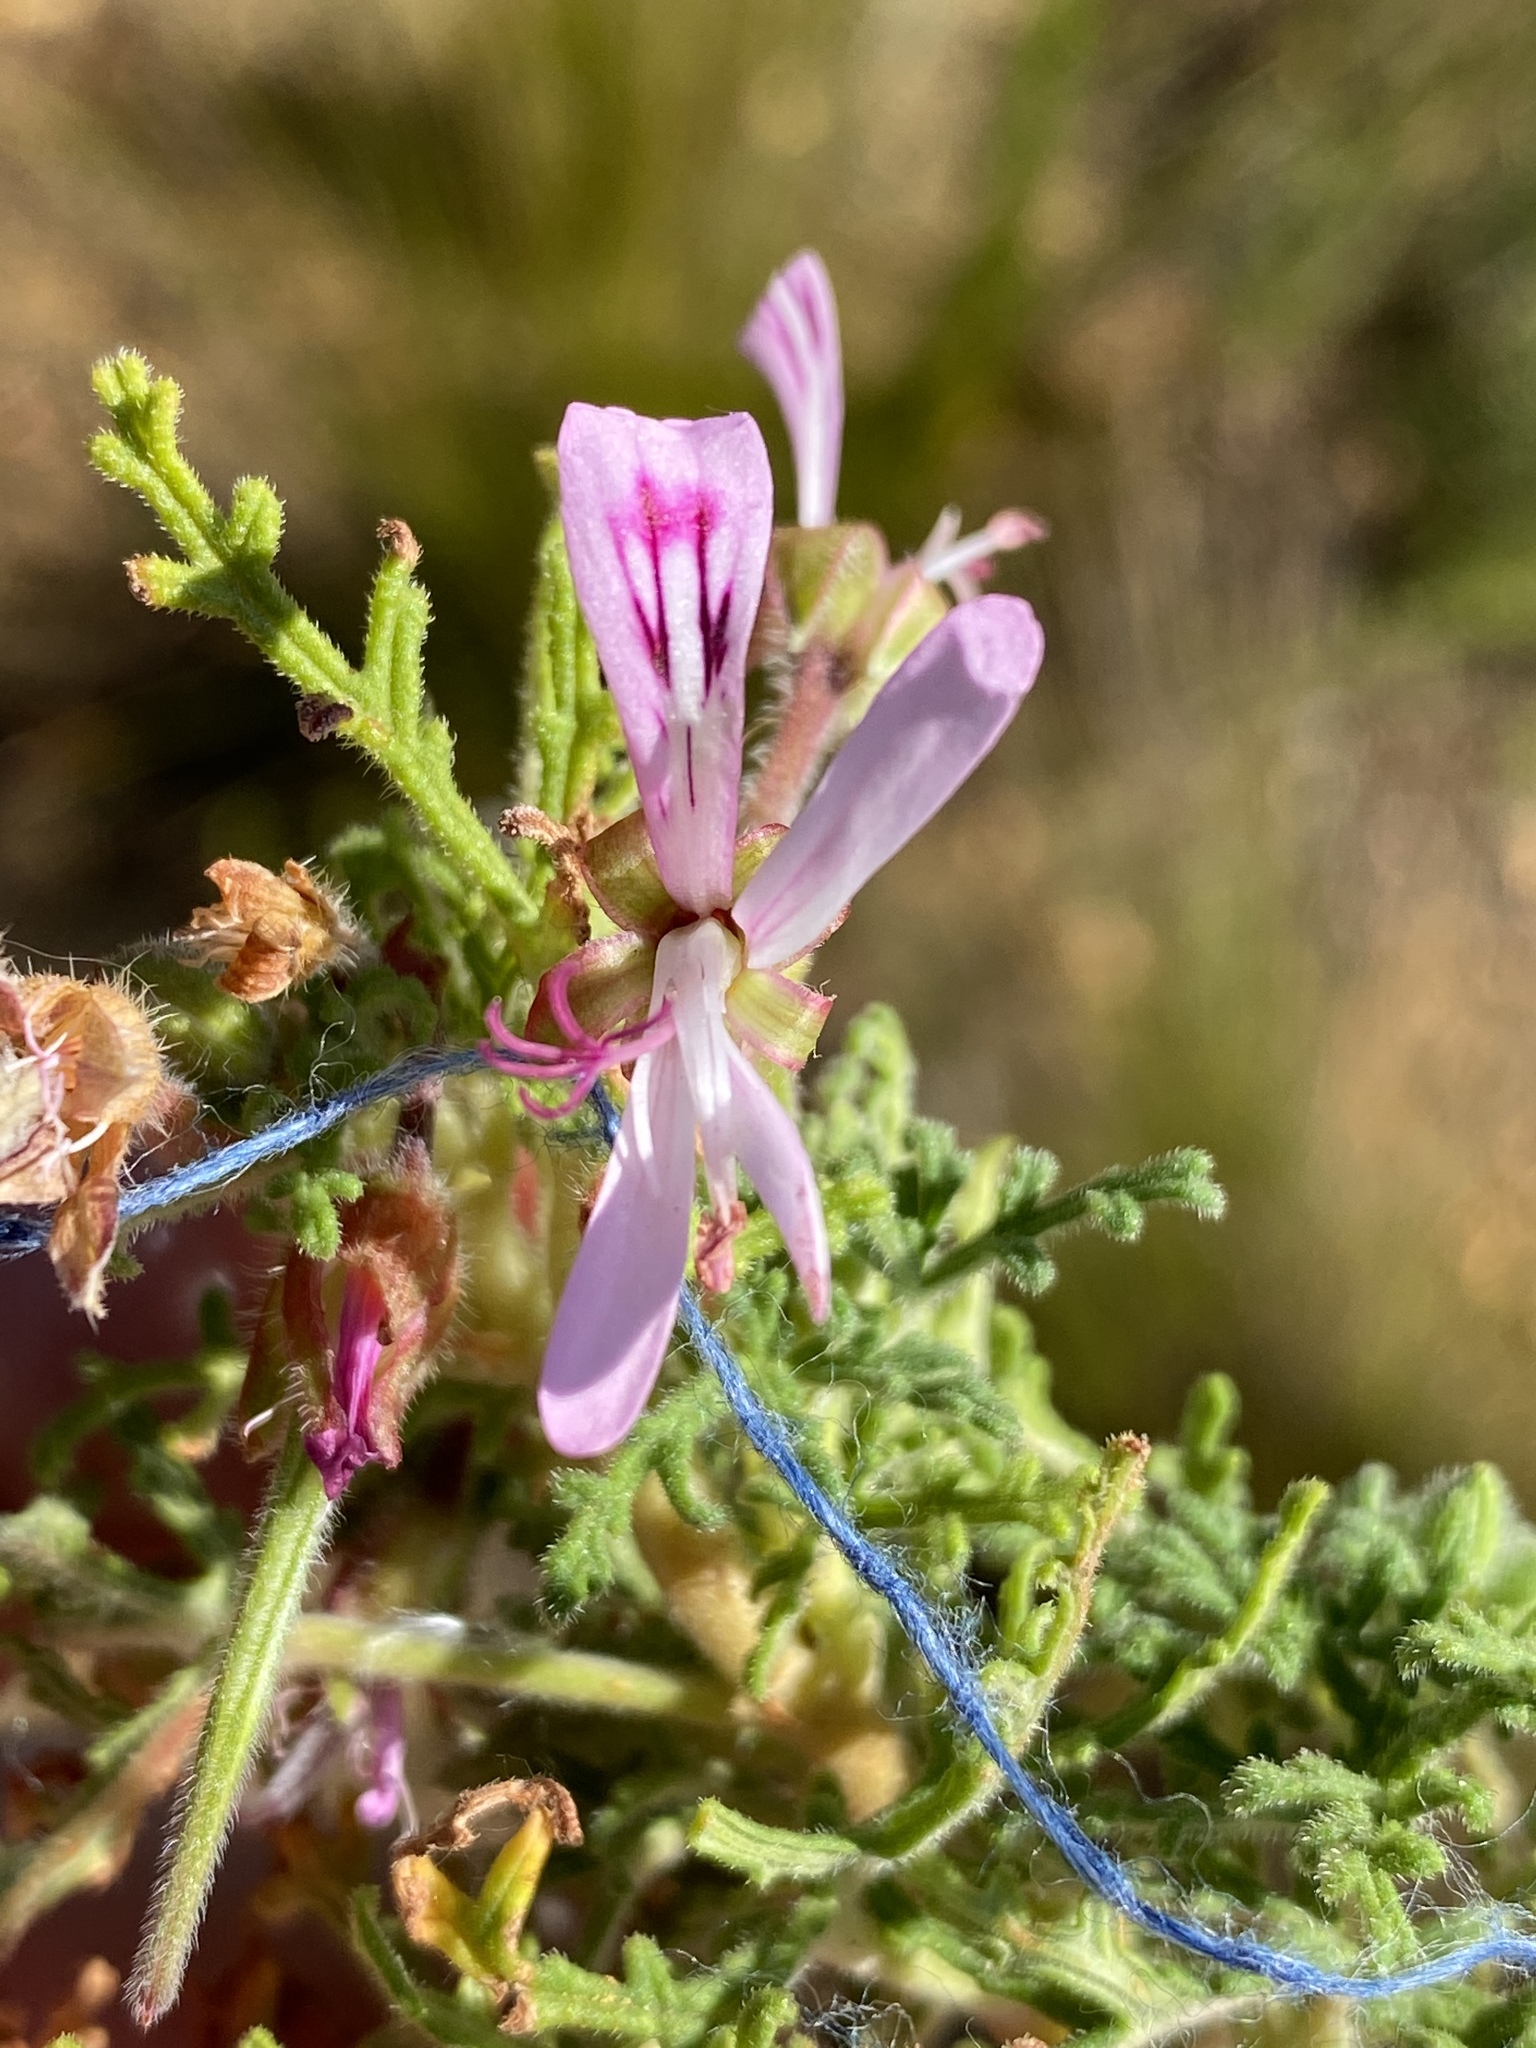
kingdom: Plantae
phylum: Tracheophyta
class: Magnoliopsida
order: Geraniales
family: Geraniaceae
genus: Pelargonium
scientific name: Pelargonium radens
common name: Rasp-leaf pelargonium
